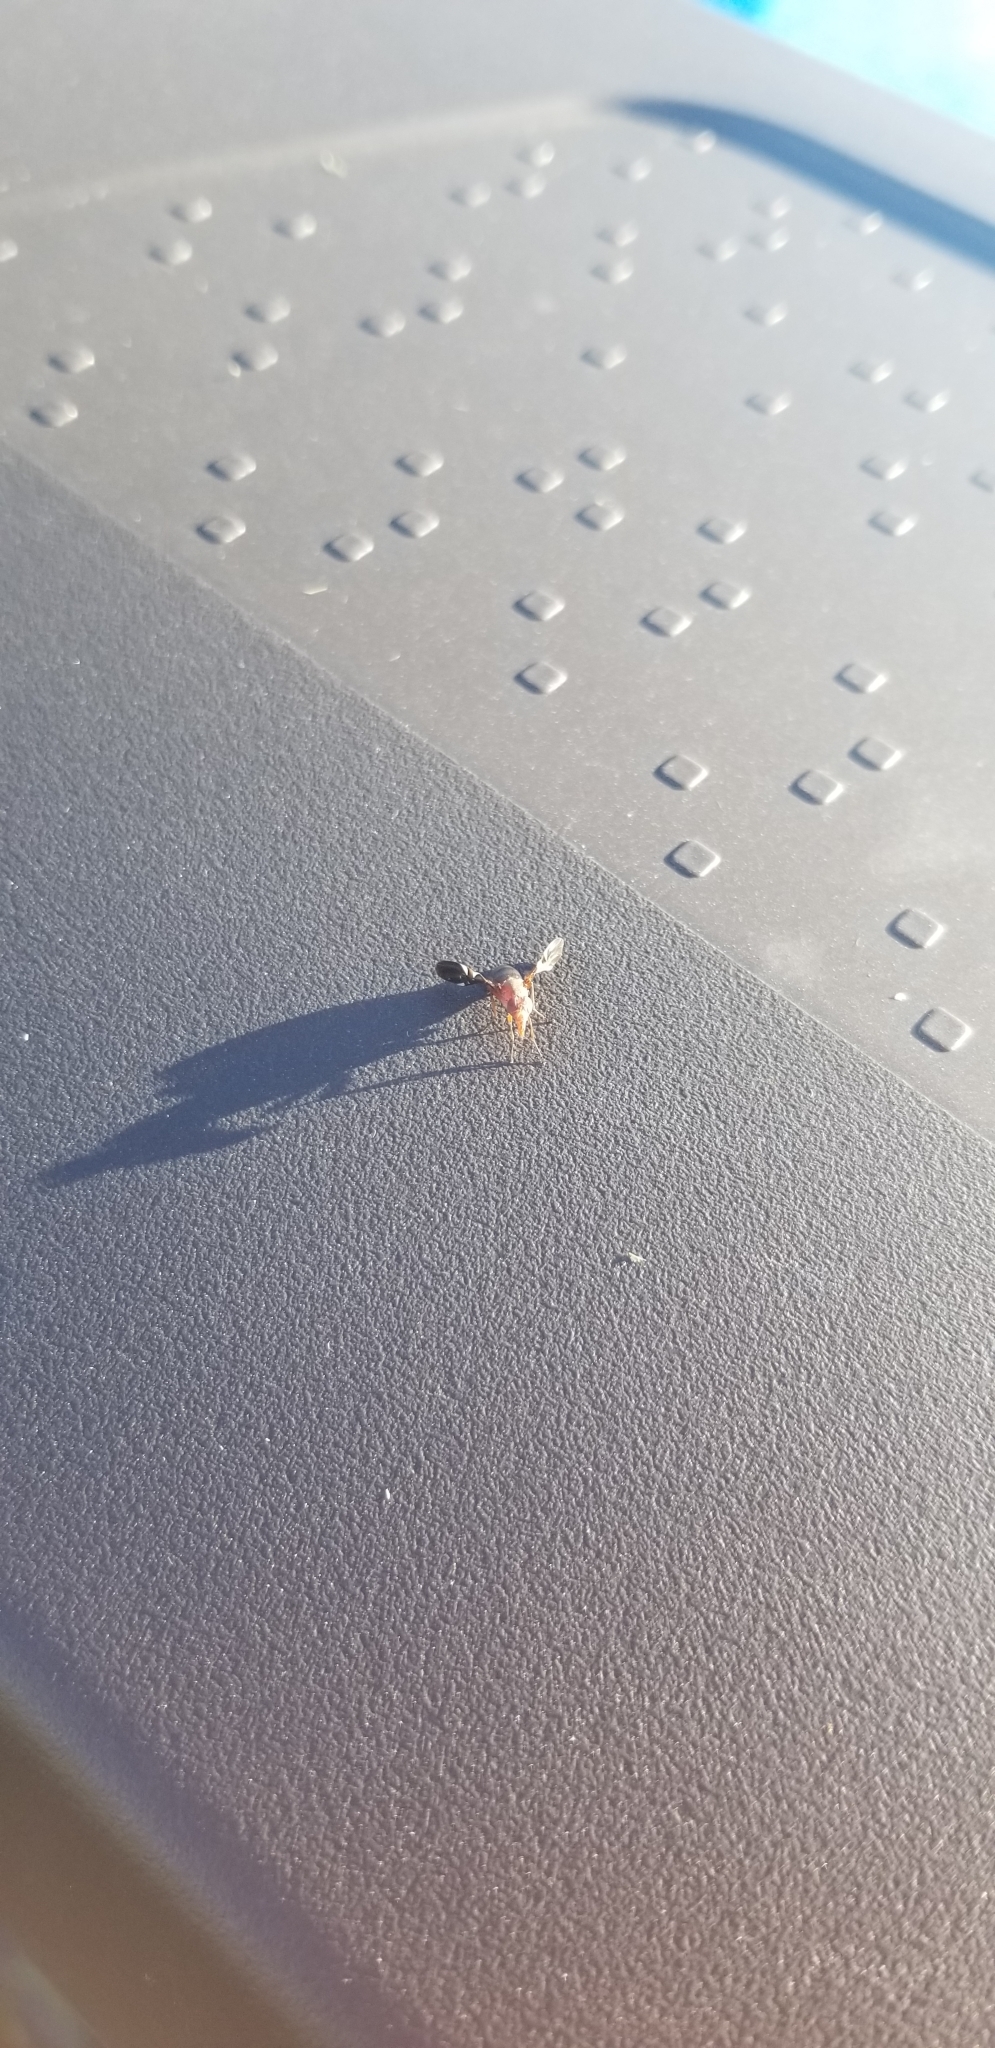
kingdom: Animalia
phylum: Arthropoda
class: Insecta
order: Diptera
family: Ulidiidae
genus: Delphinia
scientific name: Delphinia picta
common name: Common picture-winged fly
